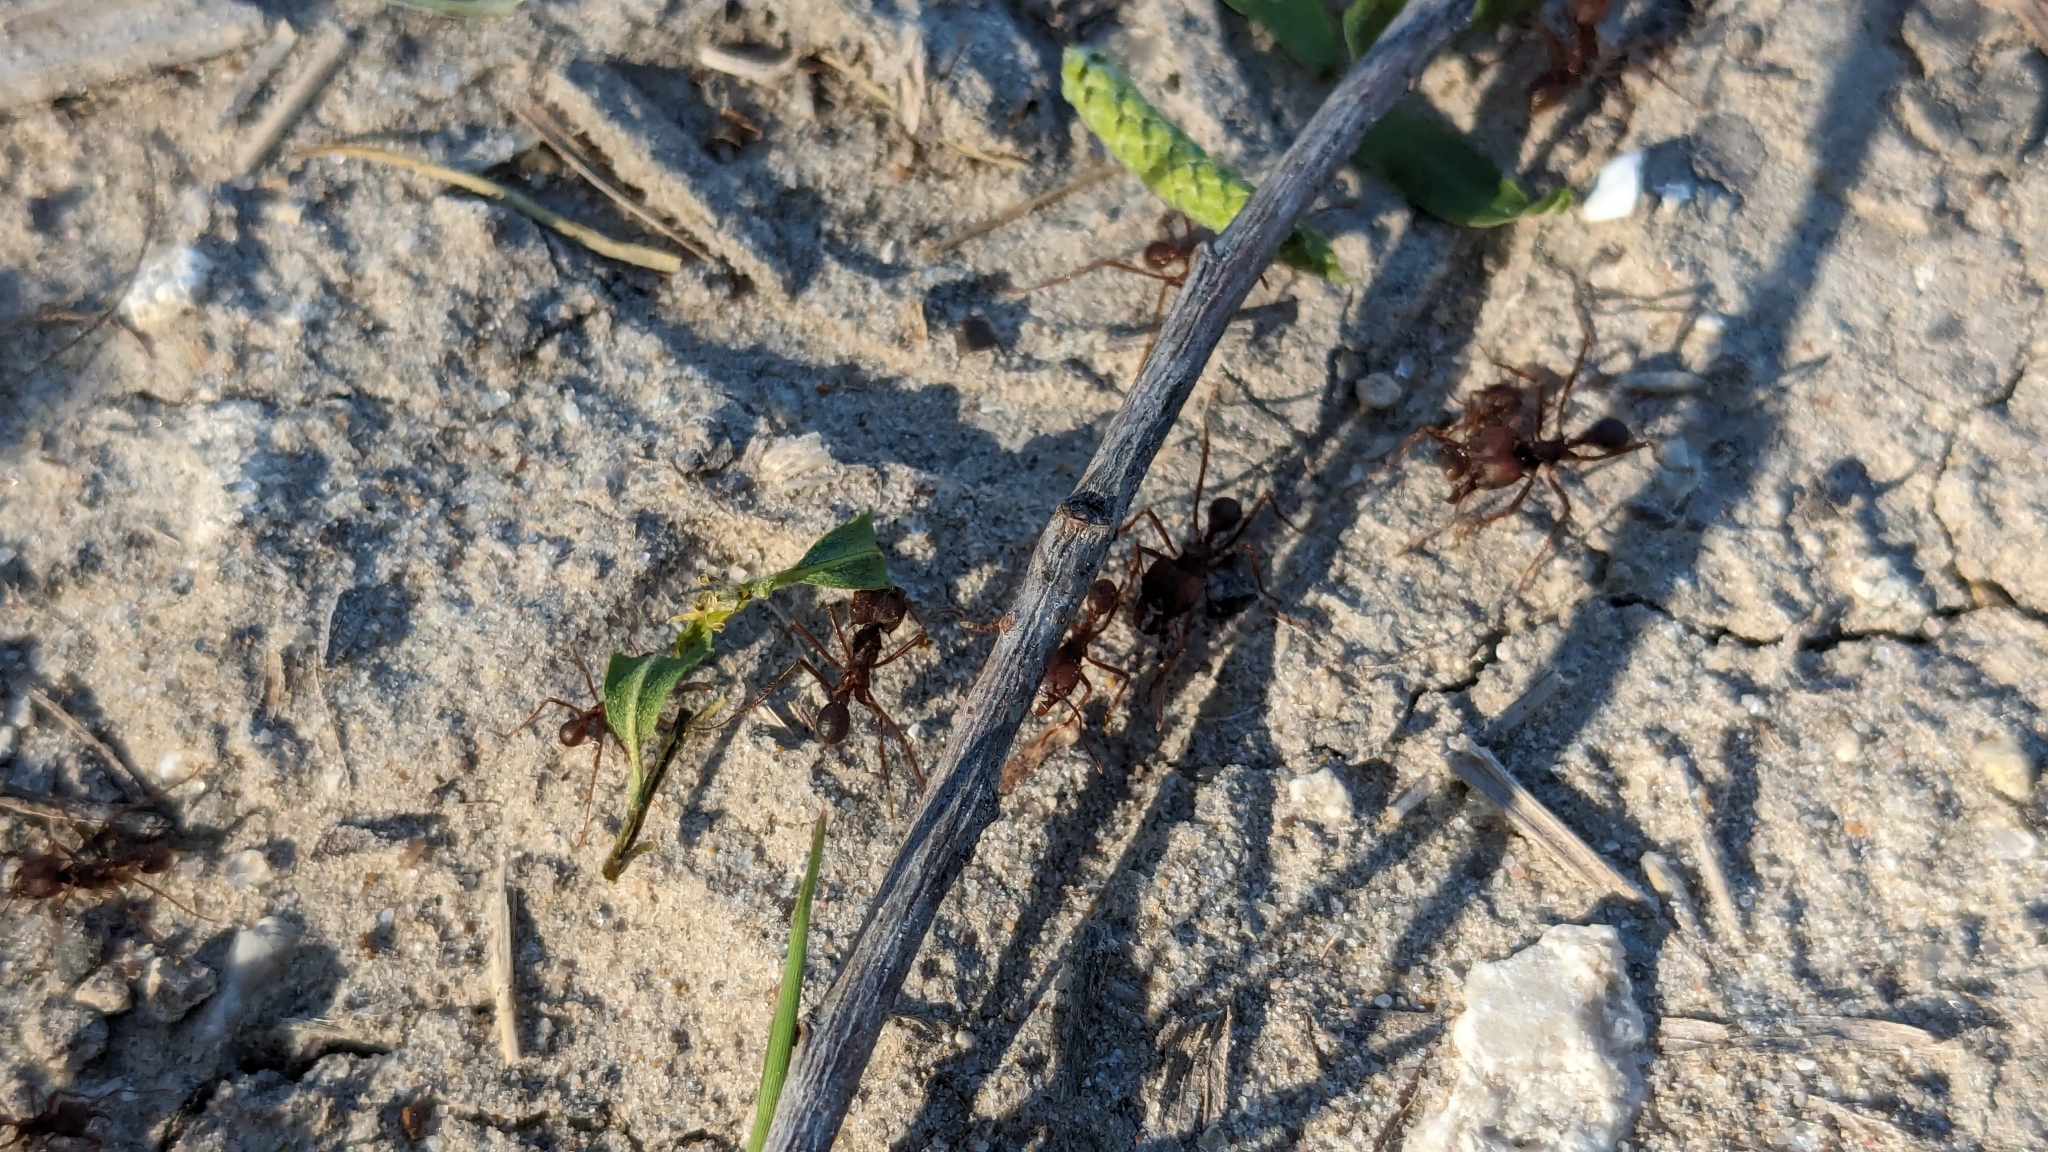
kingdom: Animalia
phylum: Arthropoda
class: Insecta
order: Hymenoptera
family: Formicidae
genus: Atta
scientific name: Atta texana
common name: Texas leafcutting ant
